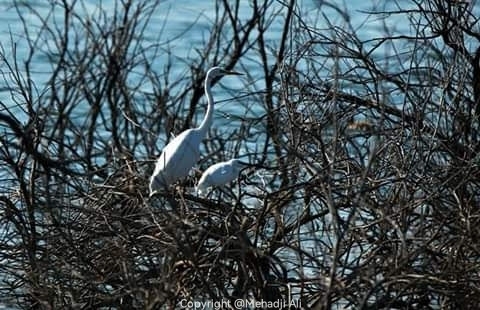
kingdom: Animalia
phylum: Chordata
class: Aves
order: Pelecaniformes
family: Ardeidae
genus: Ardea
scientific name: Ardea alba
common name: Great egret
